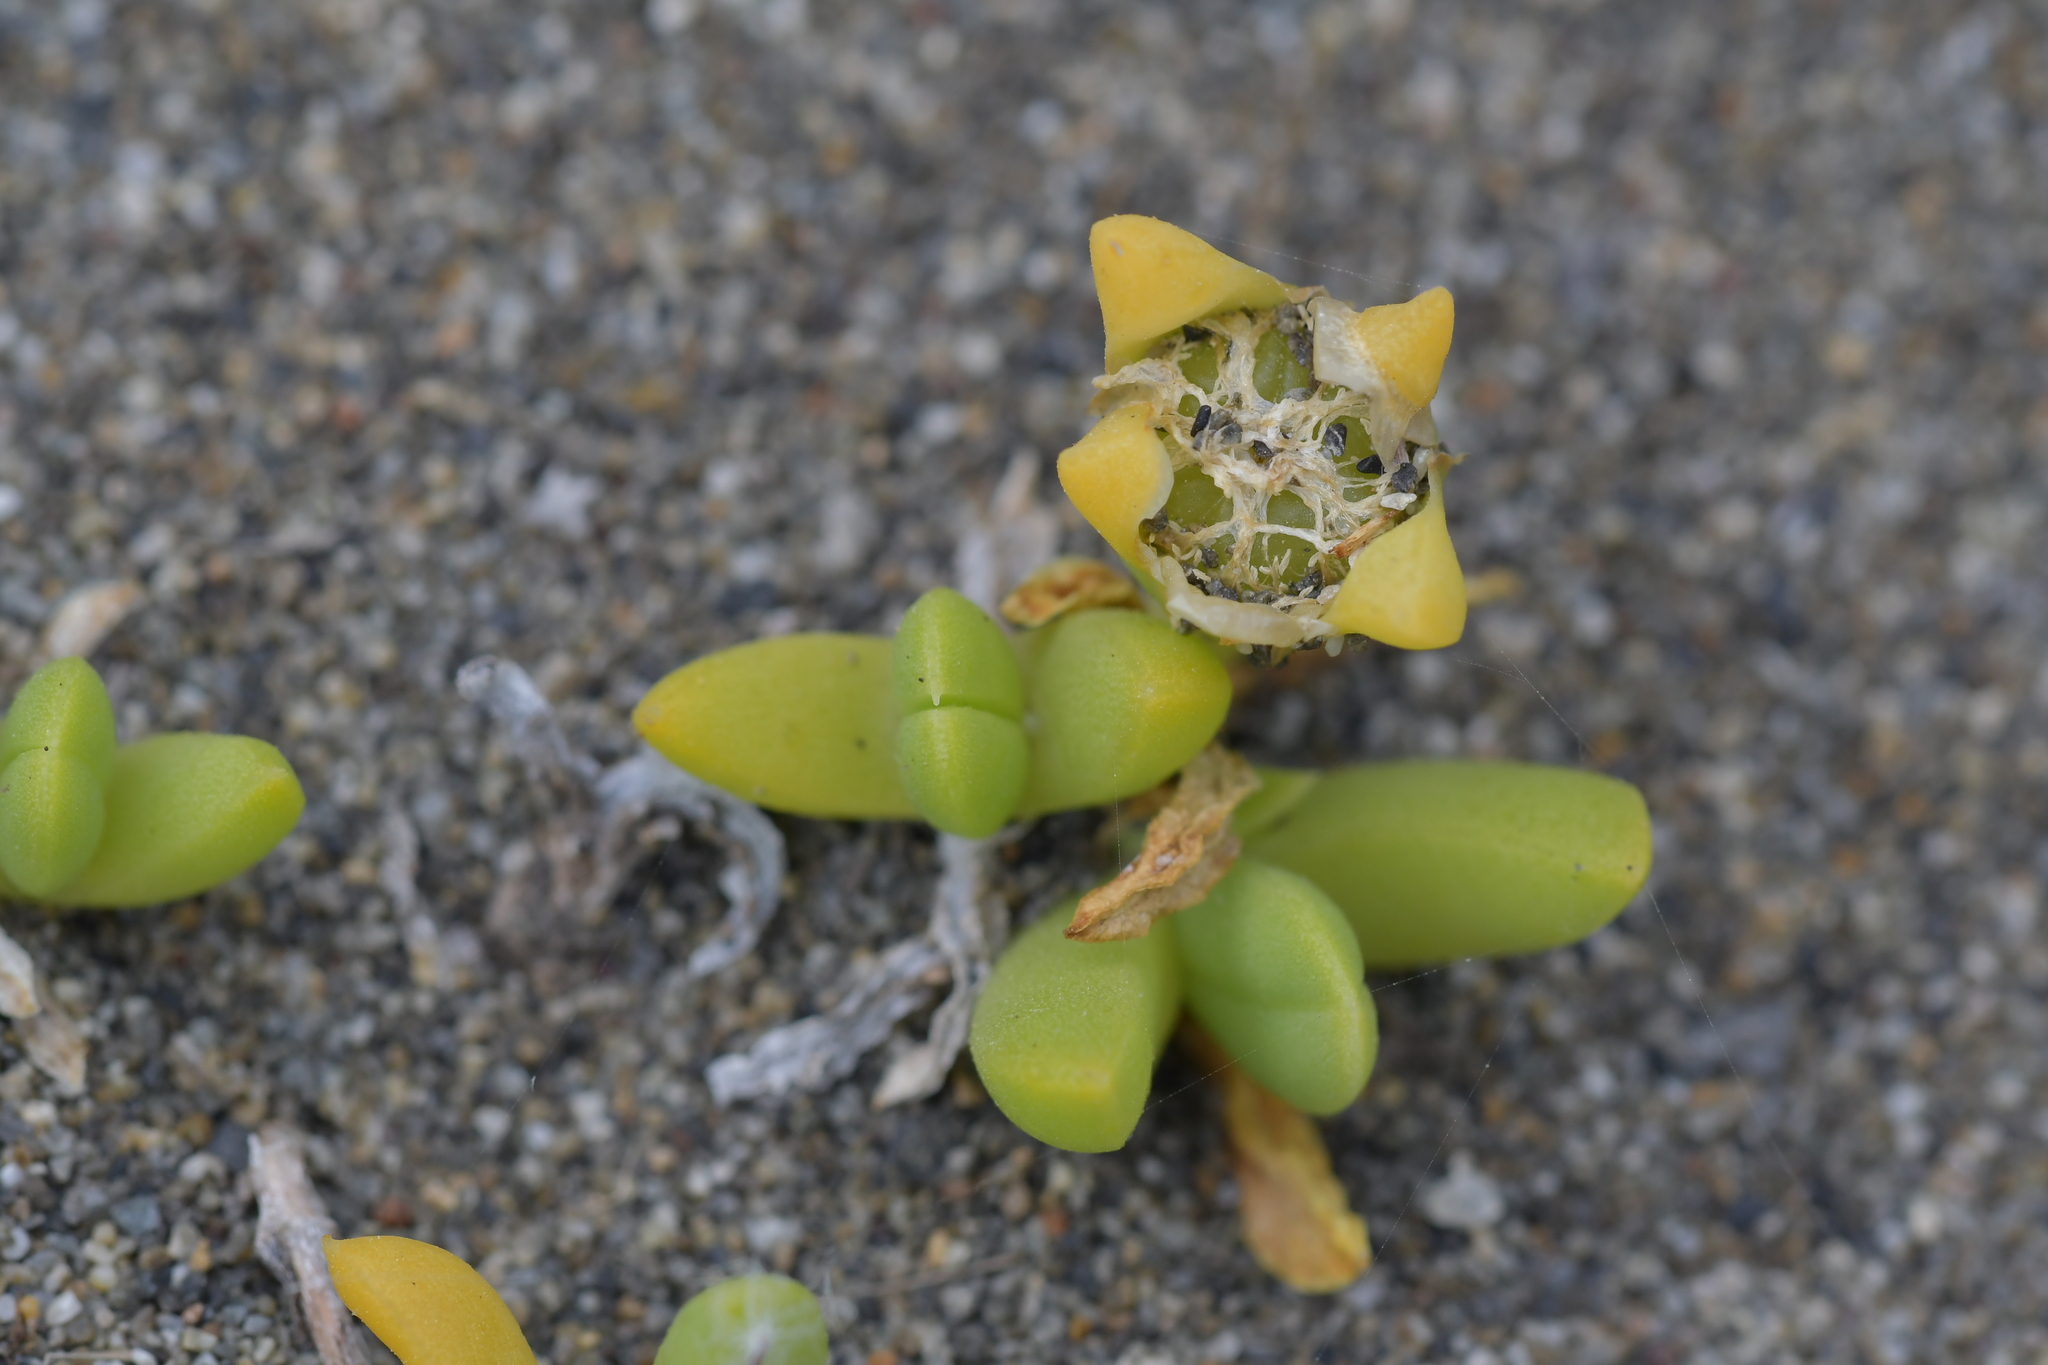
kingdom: Plantae
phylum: Tracheophyta
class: Magnoliopsida
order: Caryophyllales
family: Aizoaceae
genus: Disphyma
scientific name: Disphyma australe
